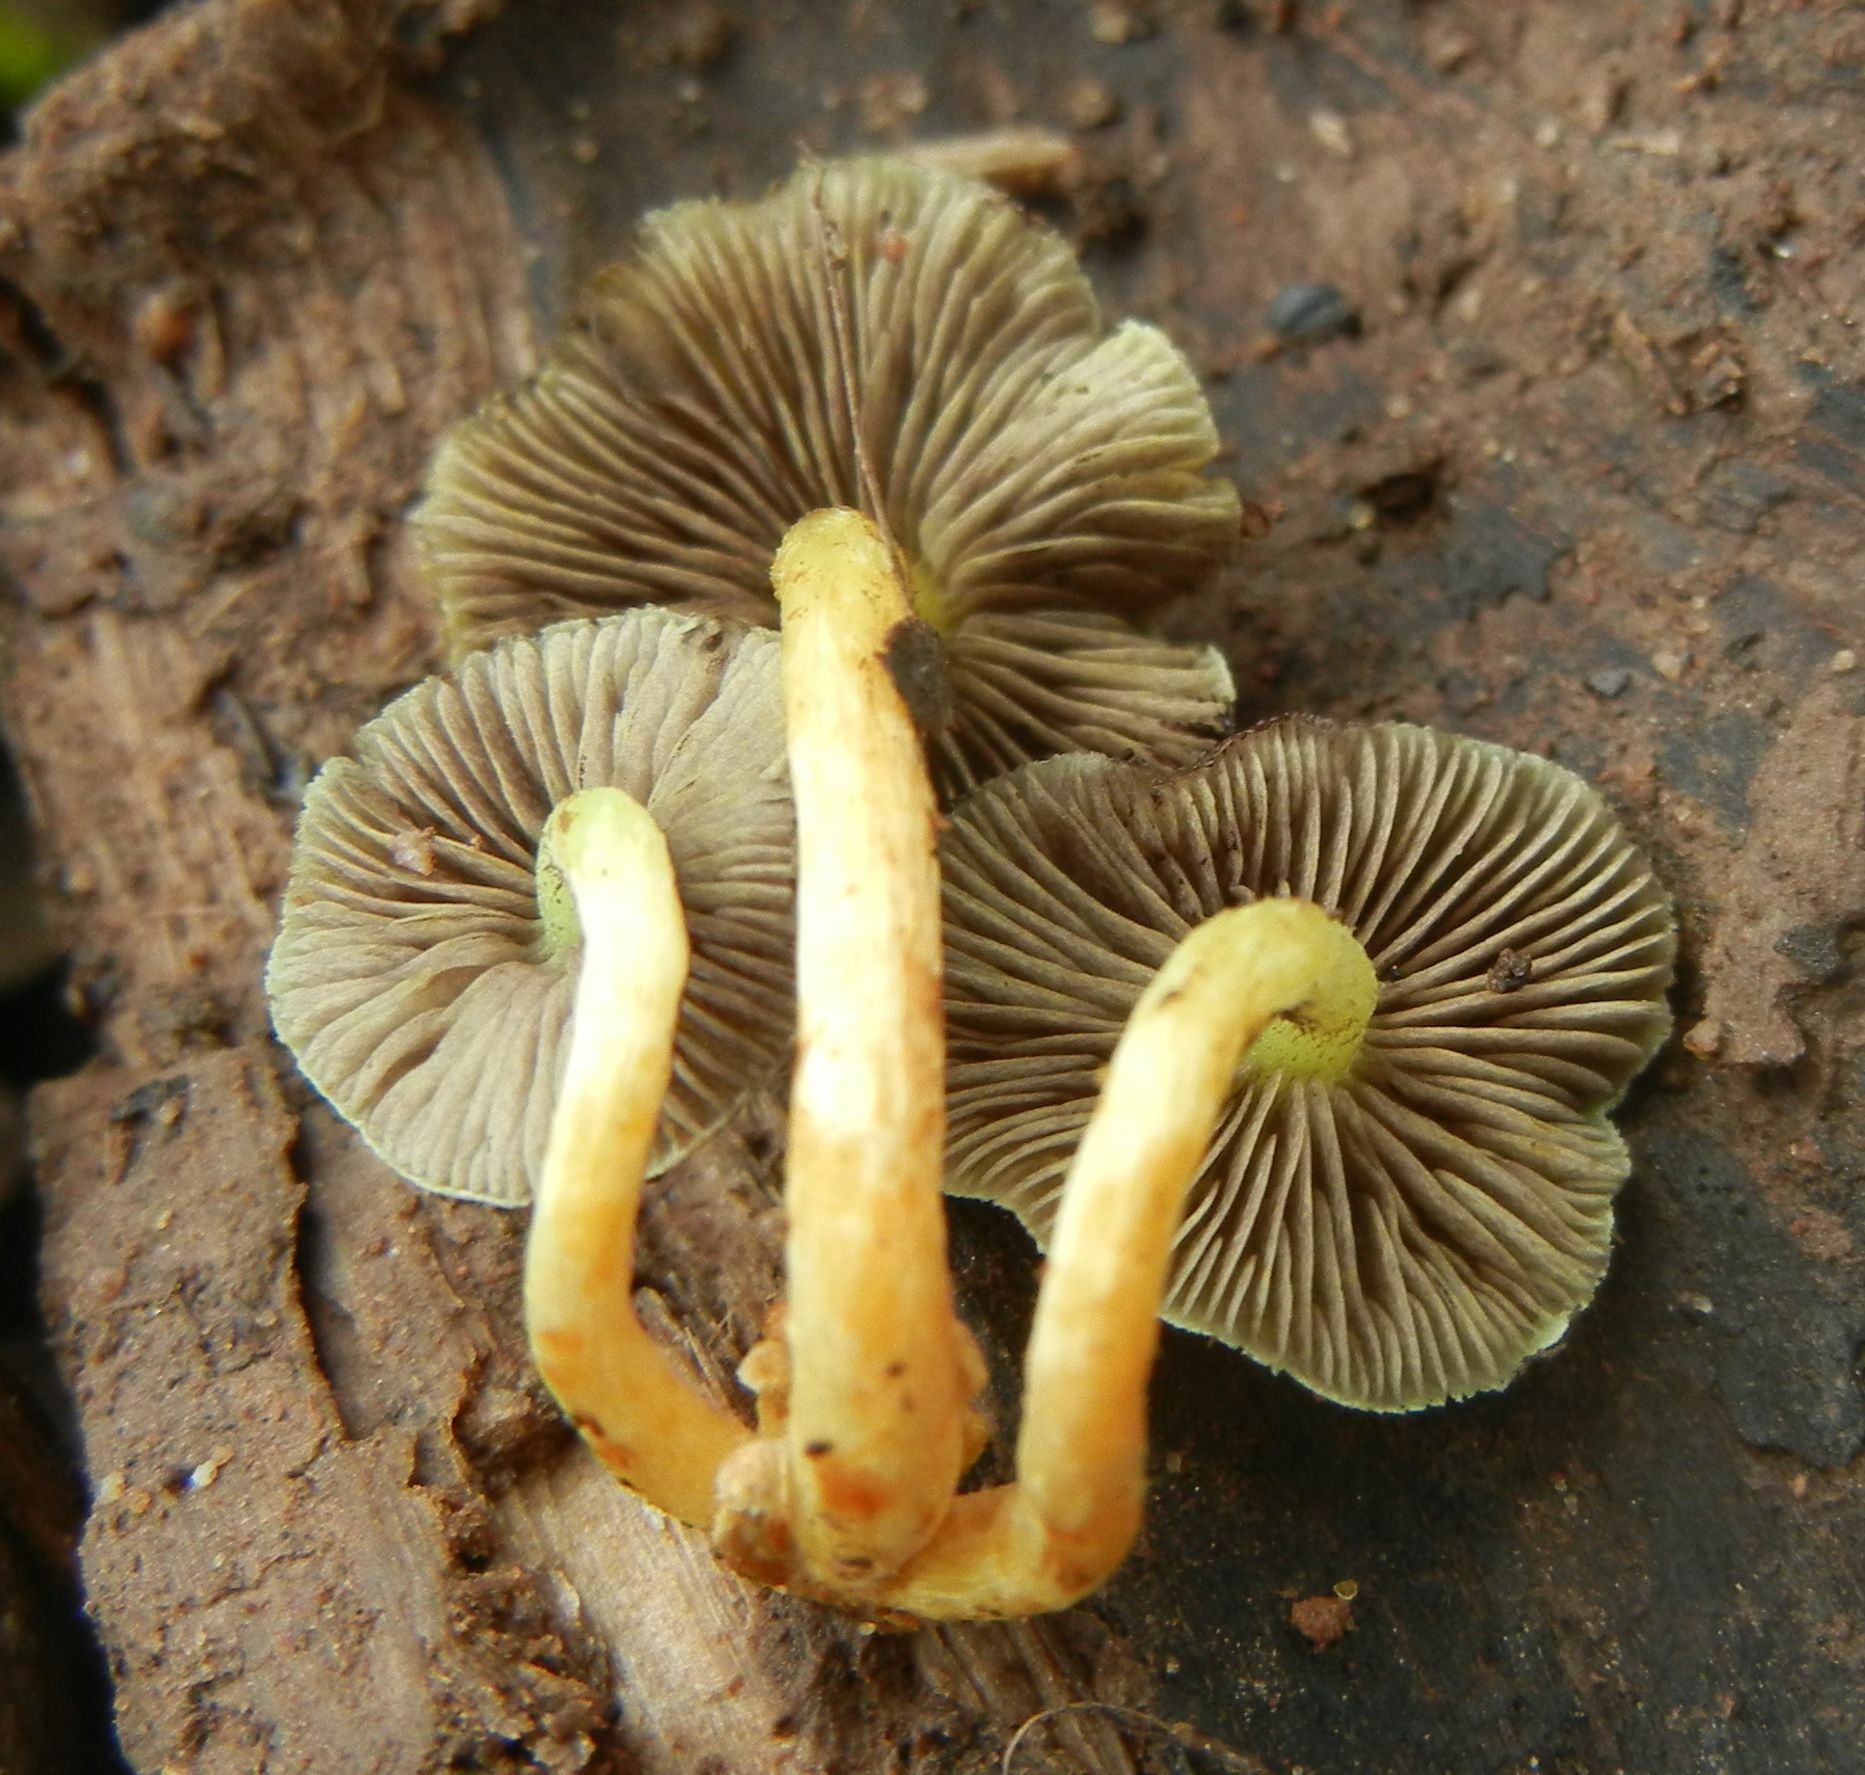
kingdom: Fungi
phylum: Basidiomycota
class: Agaricomycetes
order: Agaricales
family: Strophariaceae
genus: Hypholoma
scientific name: Hypholoma fasciculare
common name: Sulphur tuft
